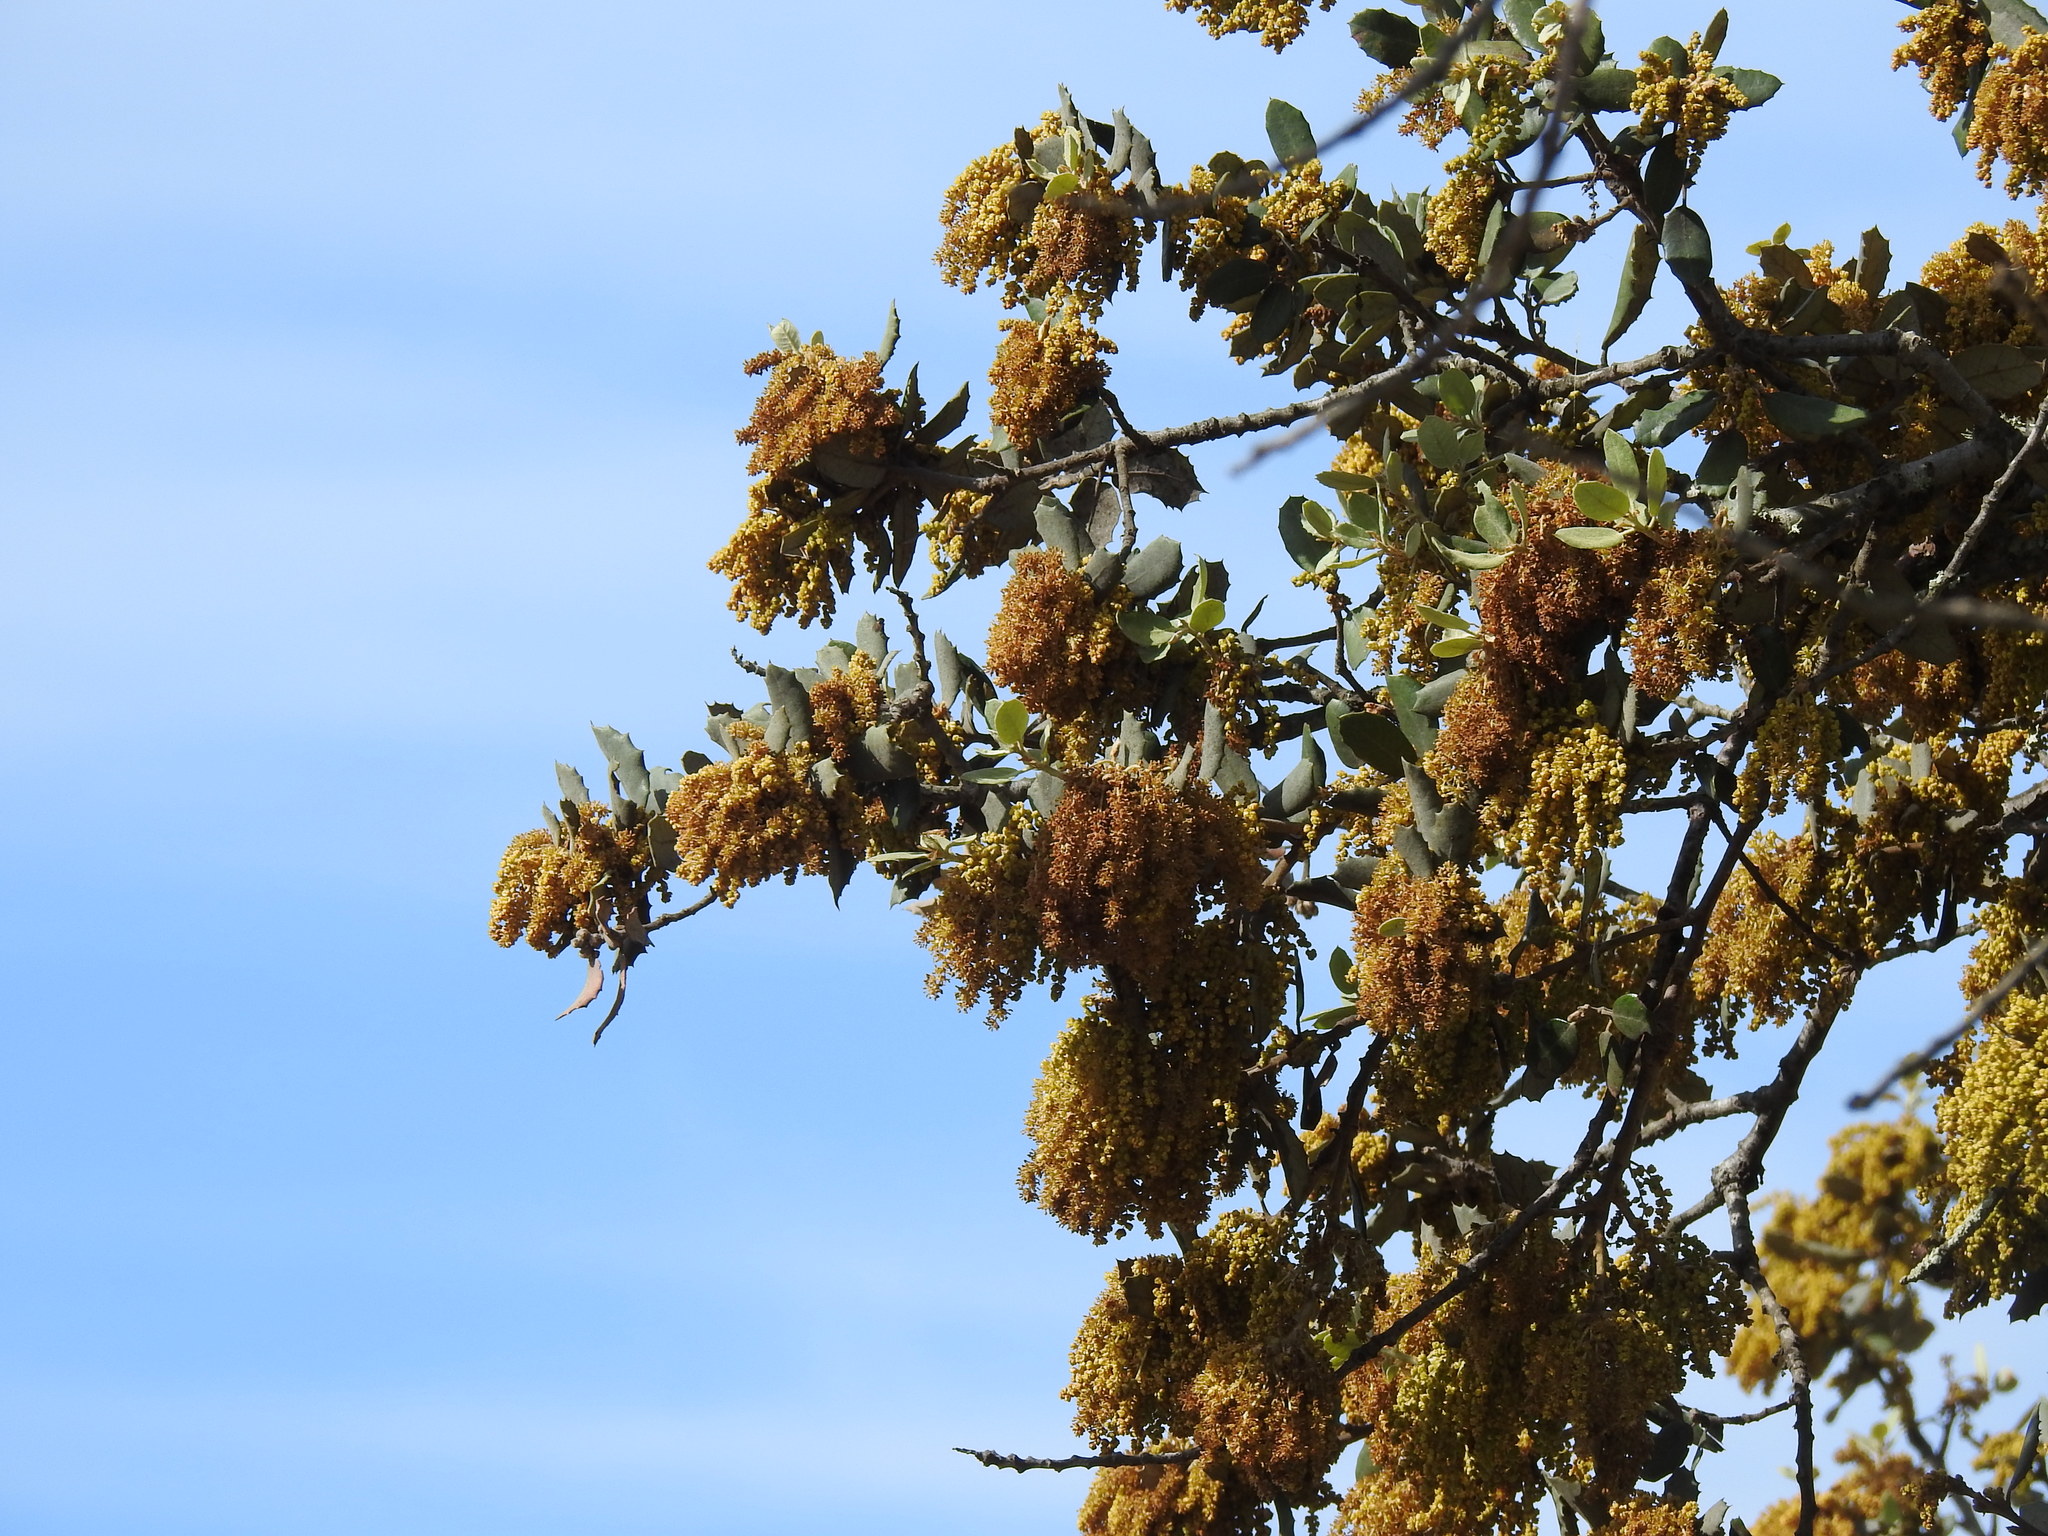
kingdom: Plantae
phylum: Tracheophyta
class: Magnoliopsida
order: Fagales
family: Fagaceae
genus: Quercus
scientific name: Quercus rotundifolia
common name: Holm oak
